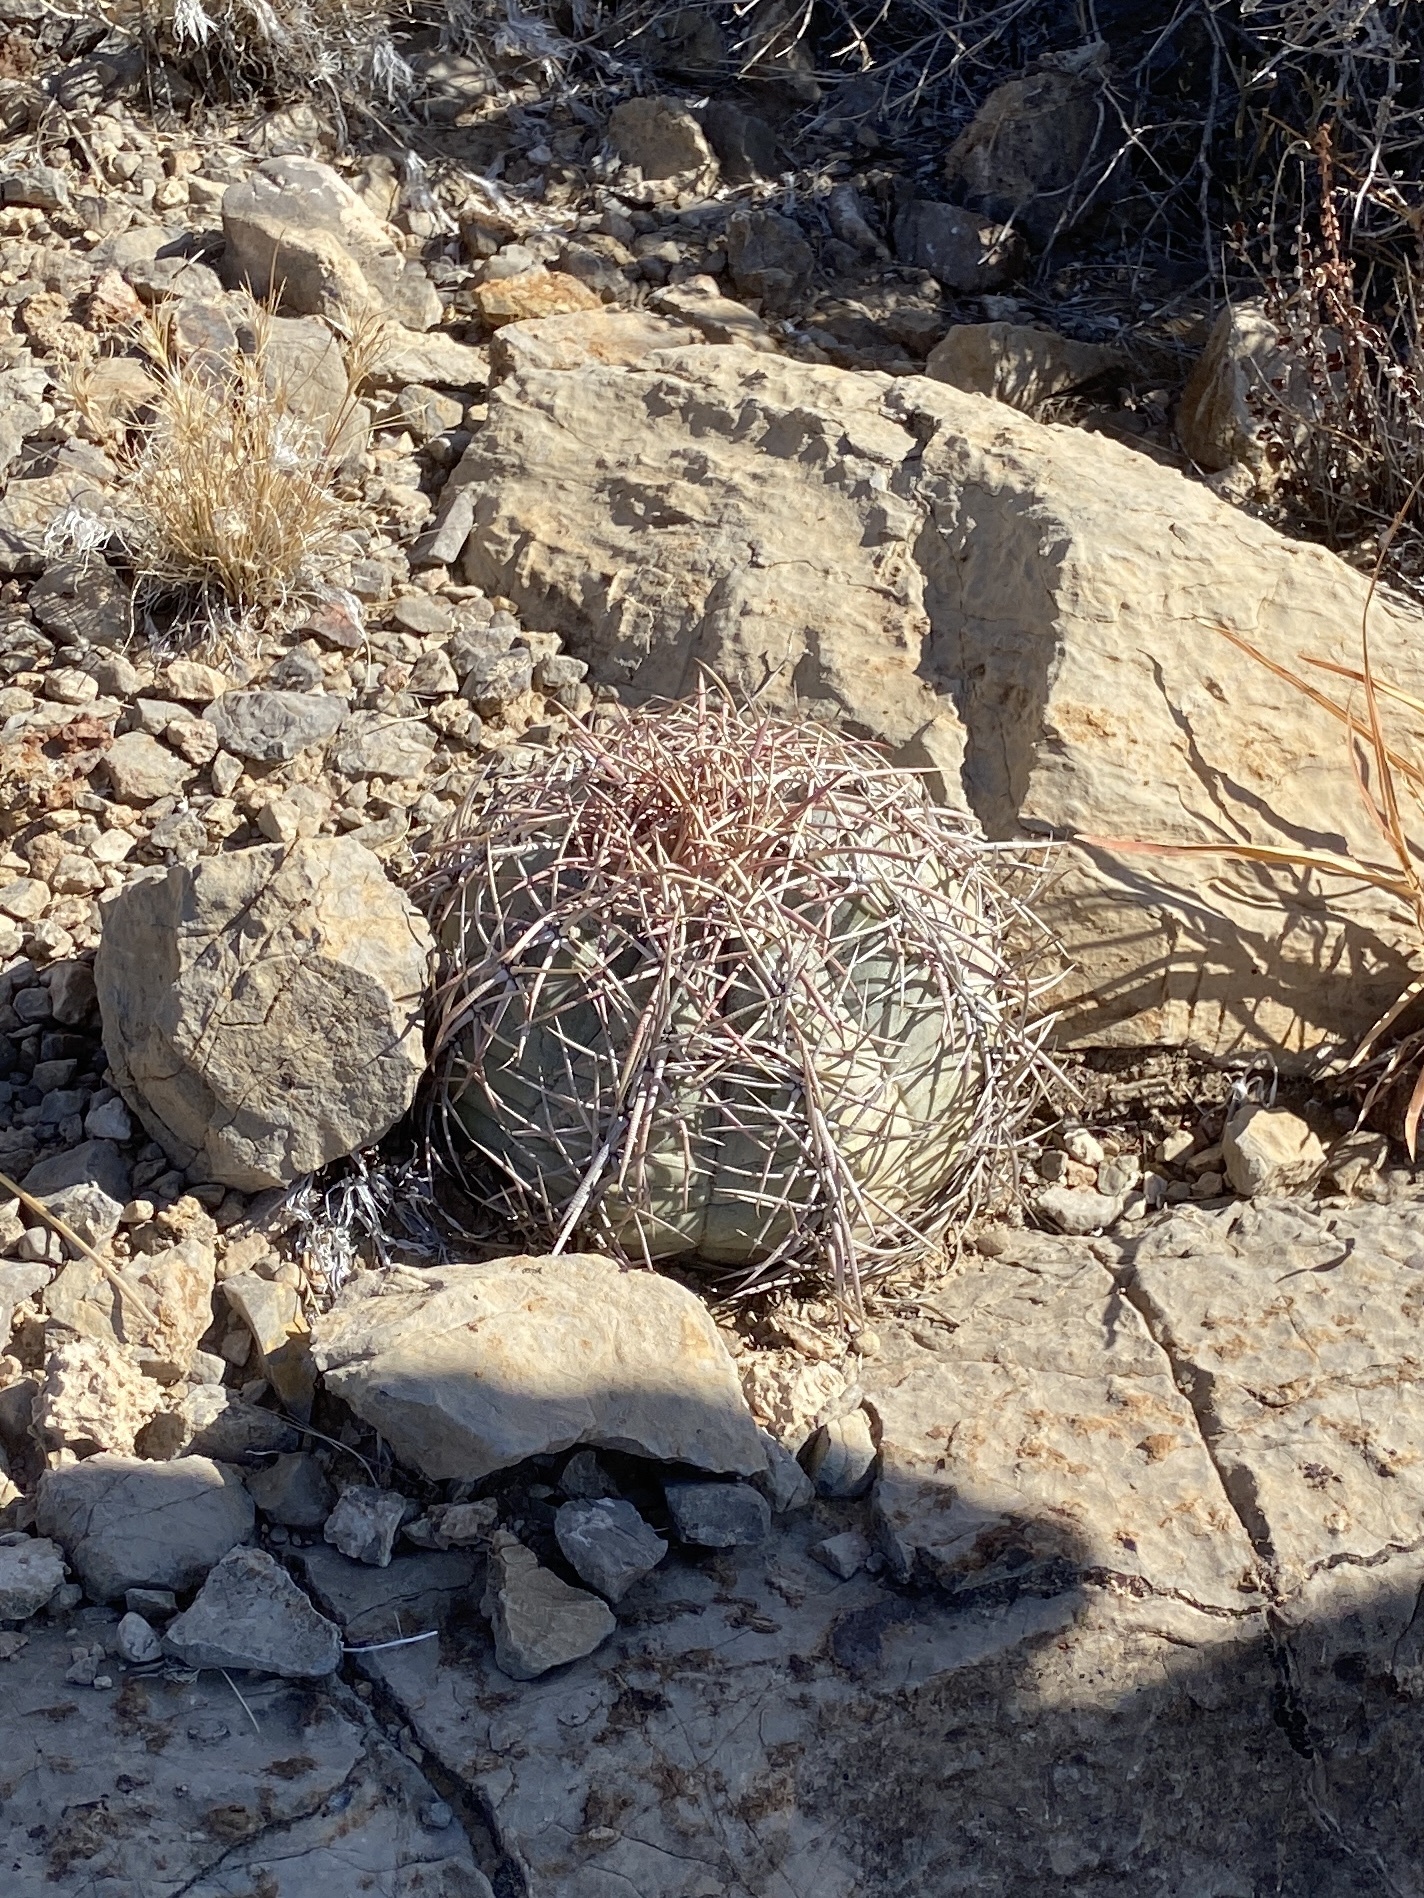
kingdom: Plantae
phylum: Tracheophyta
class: Magnoliopsida
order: Caryophyllales
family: Cactaceae
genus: Echinocactus
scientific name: Echinocactus horizonthalonius
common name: Devilshead
